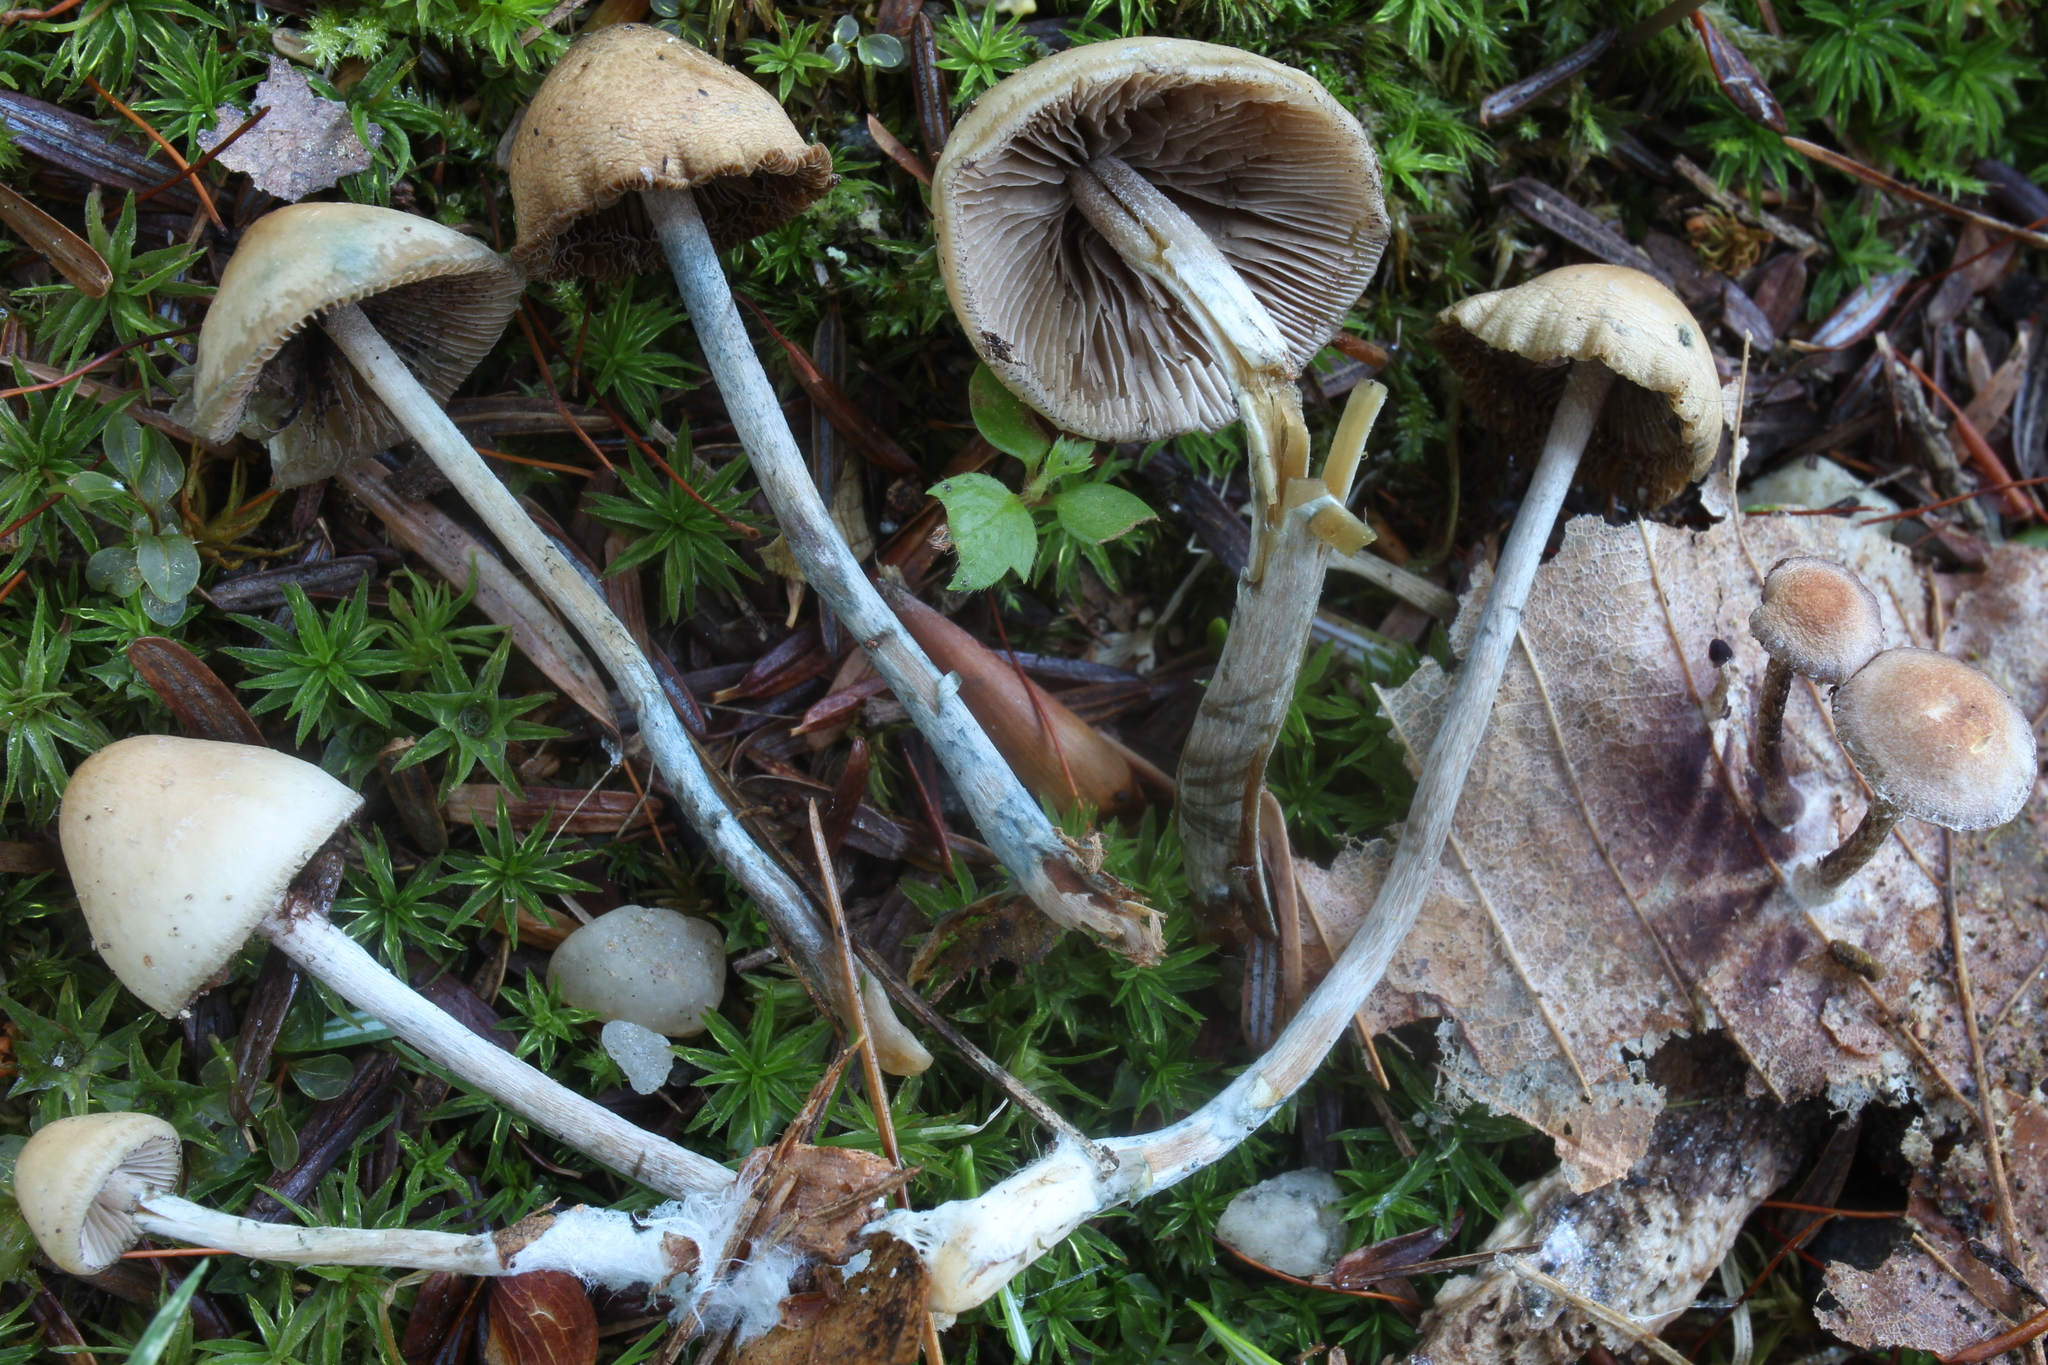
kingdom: Fungi
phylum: Basidiomycota
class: Agaricomycetes
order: Agaricales
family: Hymenogastraceae
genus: Psilocybe
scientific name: Psilocybe caerulipes
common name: Blue-foot
